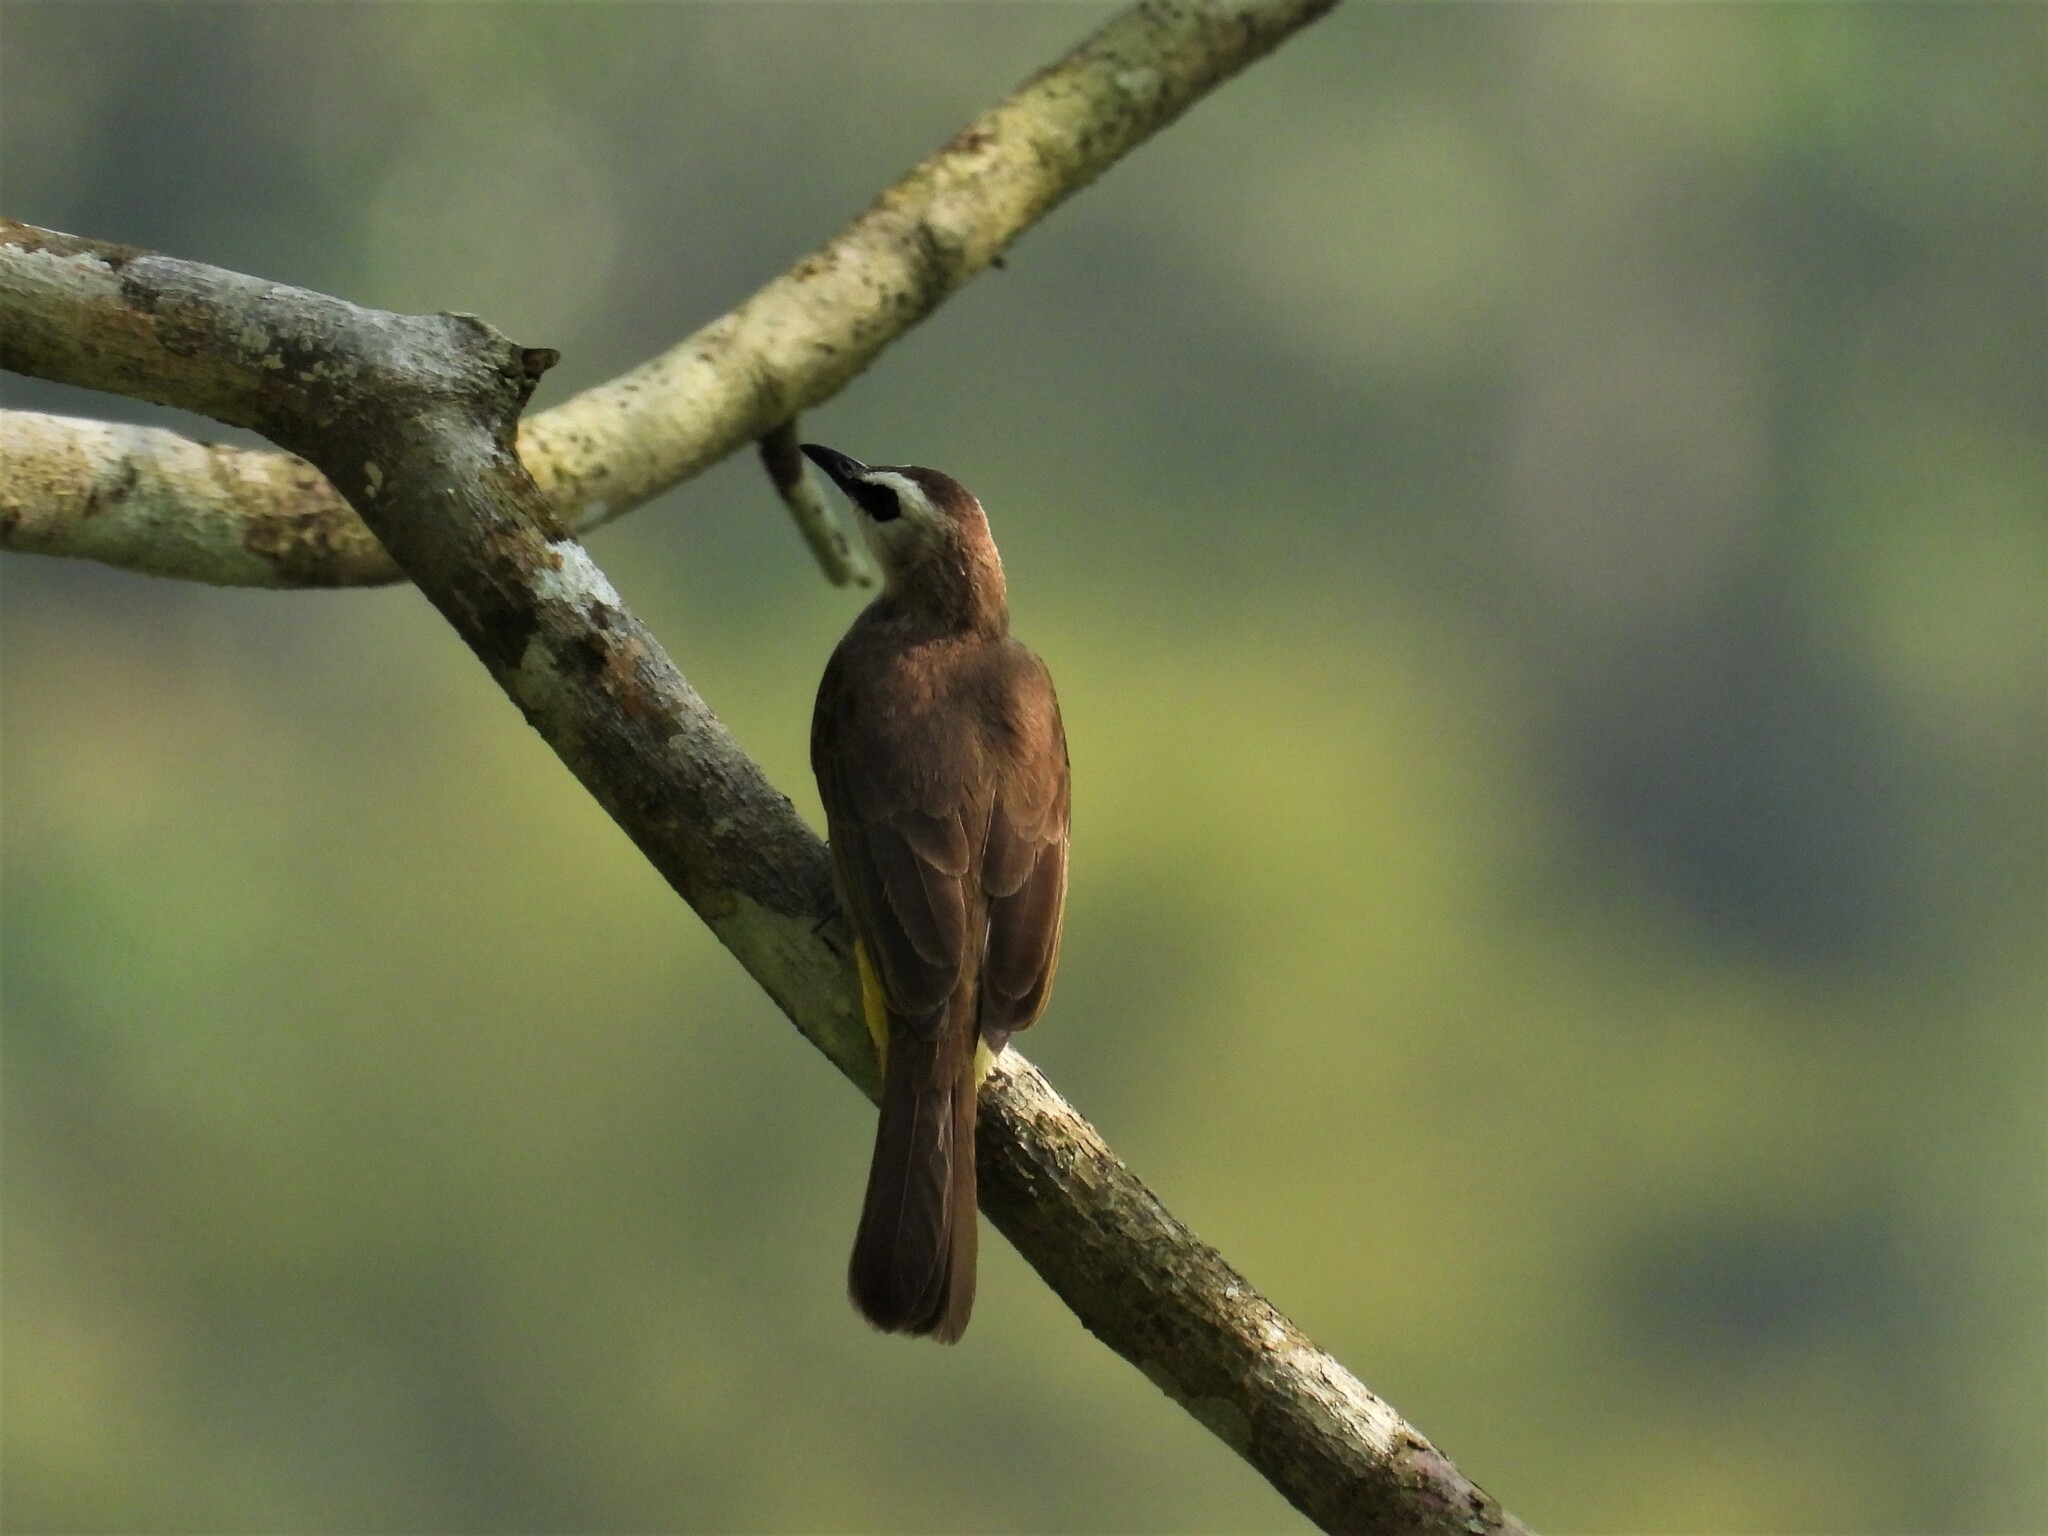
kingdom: Animalia
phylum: Chordata
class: Aves
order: Passeriformes
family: Pycnonotidae
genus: Pycnonotus
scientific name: Pycnonotus goiavier
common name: Yellow-vented bulbul
